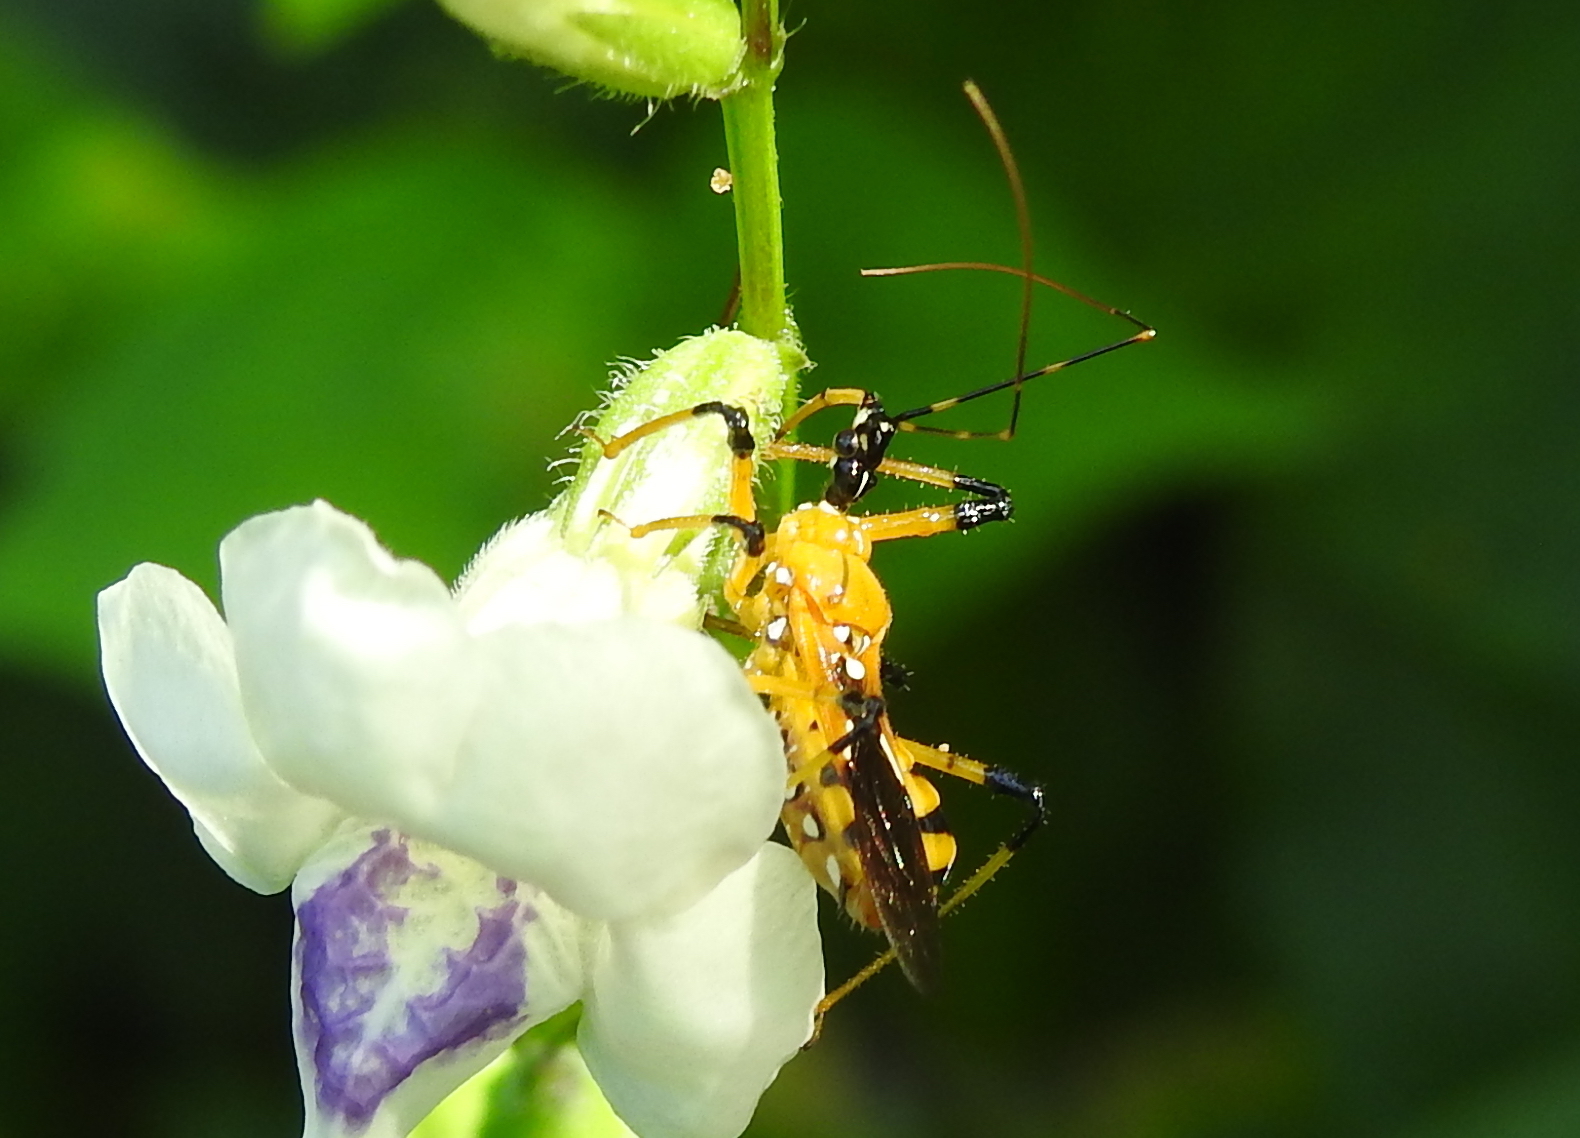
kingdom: Animalia
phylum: Arthropoda
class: Insecta
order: Hemiptera
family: Reduviidae
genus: Cosmolestes
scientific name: Cosmolestes picticeps
